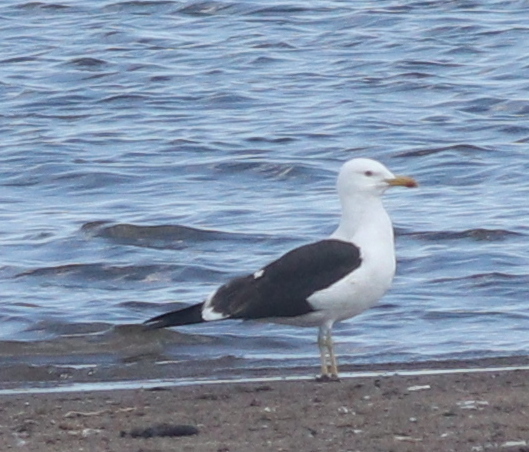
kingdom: Animalia
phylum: Chordata
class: Aves
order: Charadriiformes
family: Laridae
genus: Larus
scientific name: Larus marinus
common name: Great black-backed gull
